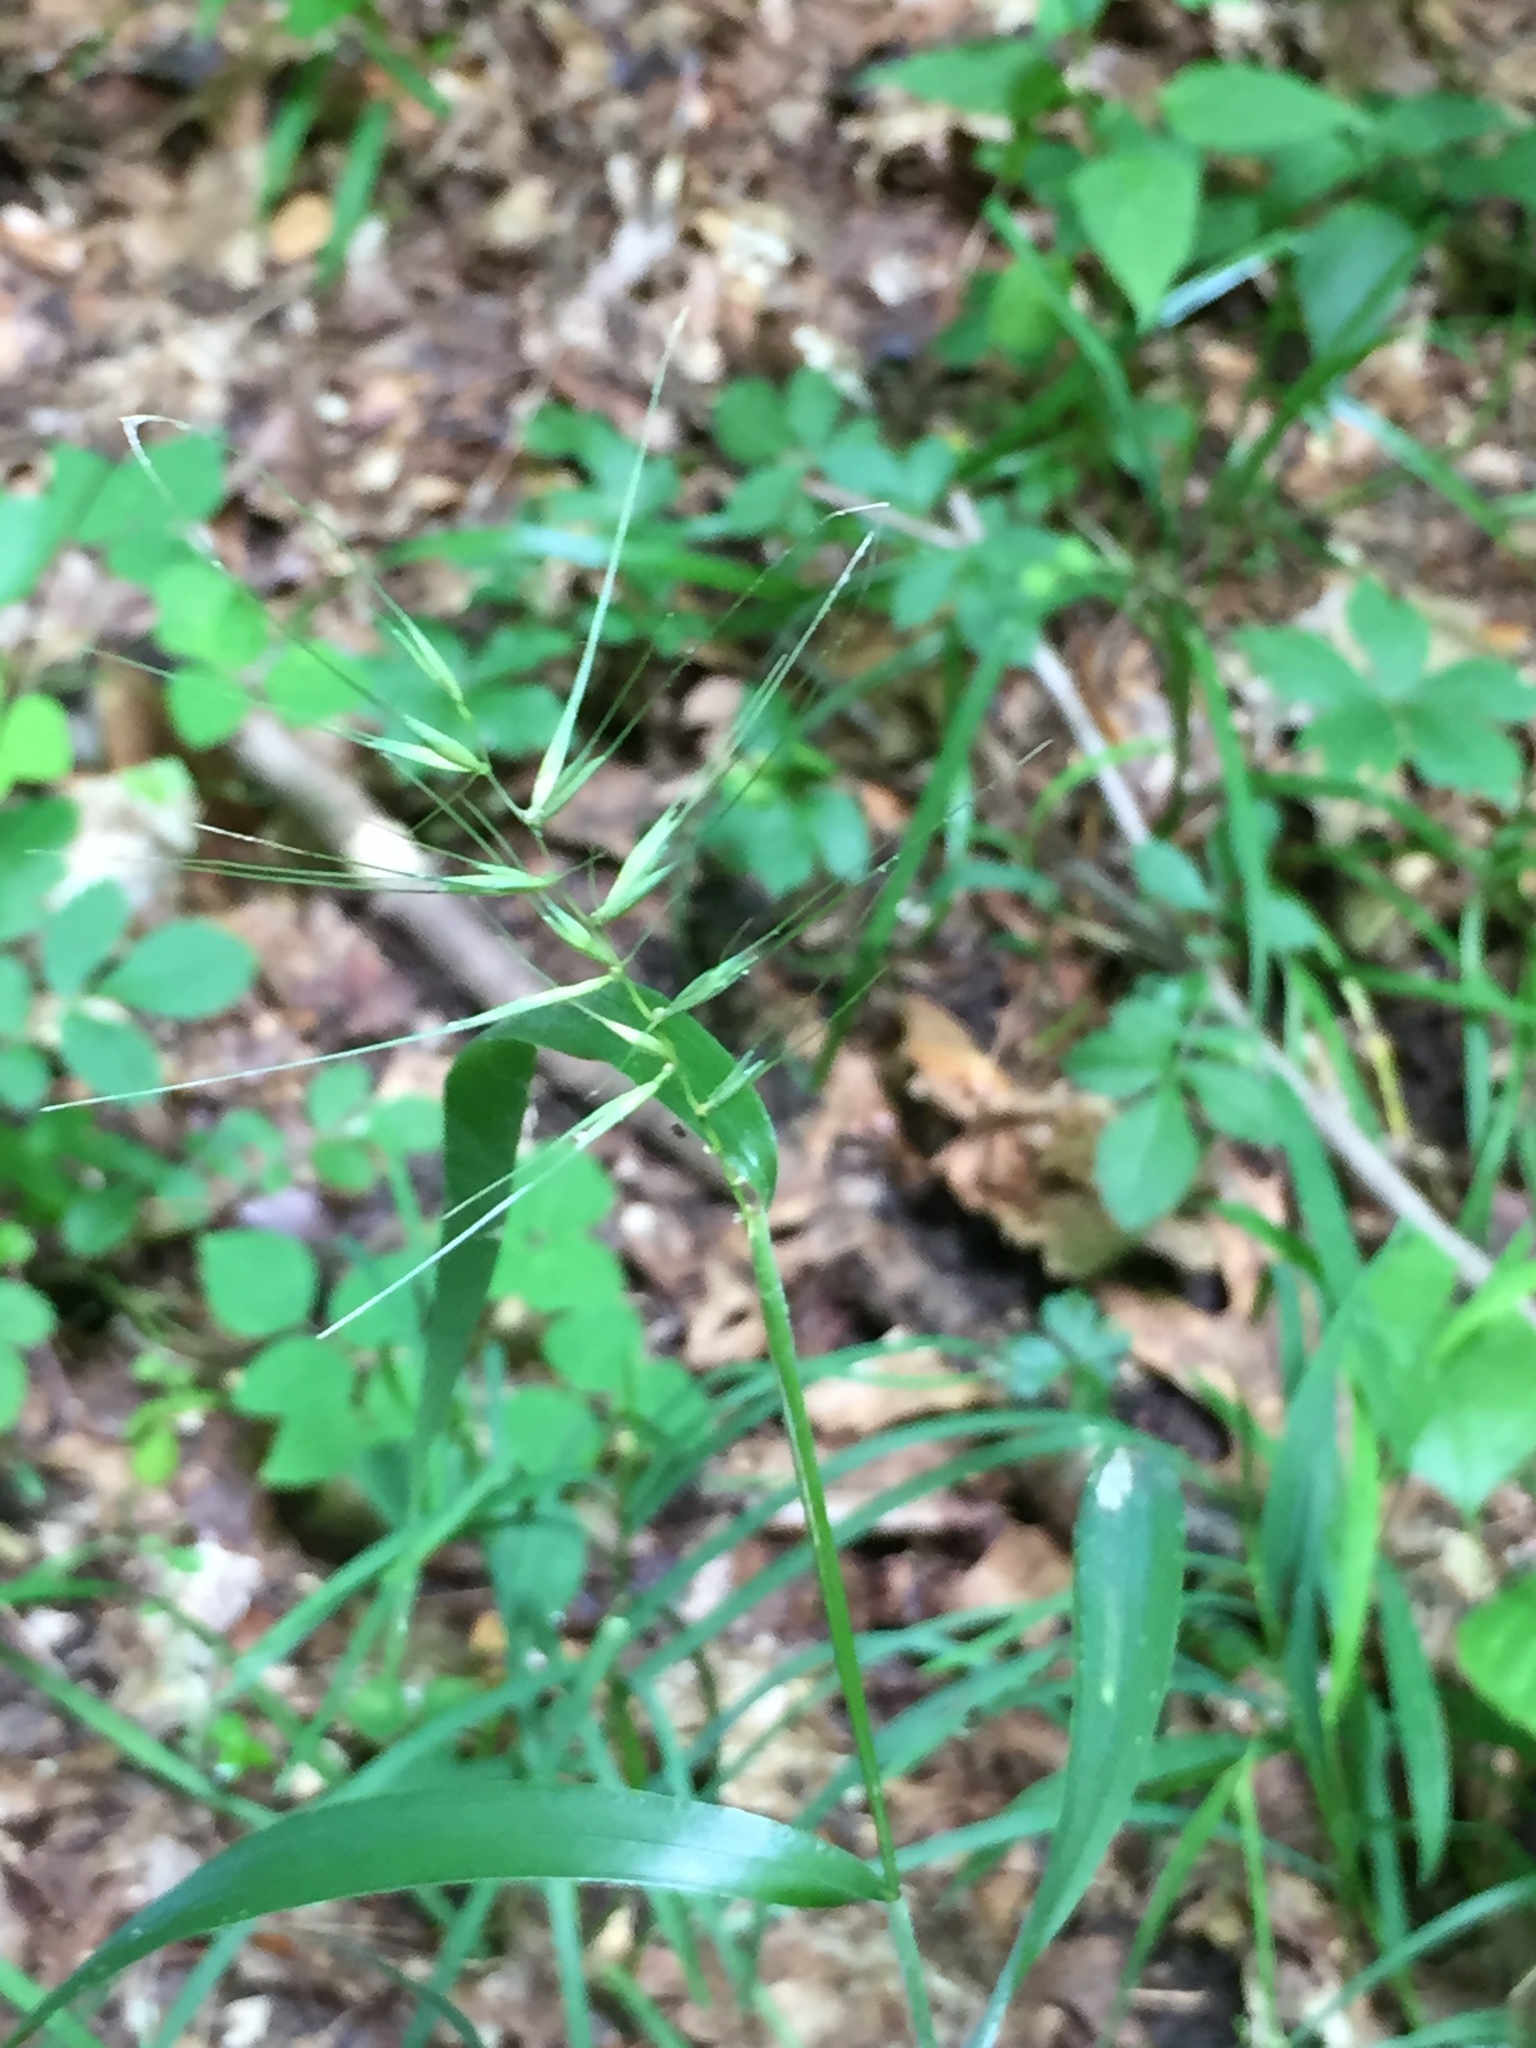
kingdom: Plantae
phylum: Tracheophyta
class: Liliopsida
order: Poales
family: Poaceae
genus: Elymus
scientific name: Elymus hystrix
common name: Bottlebrush grass
